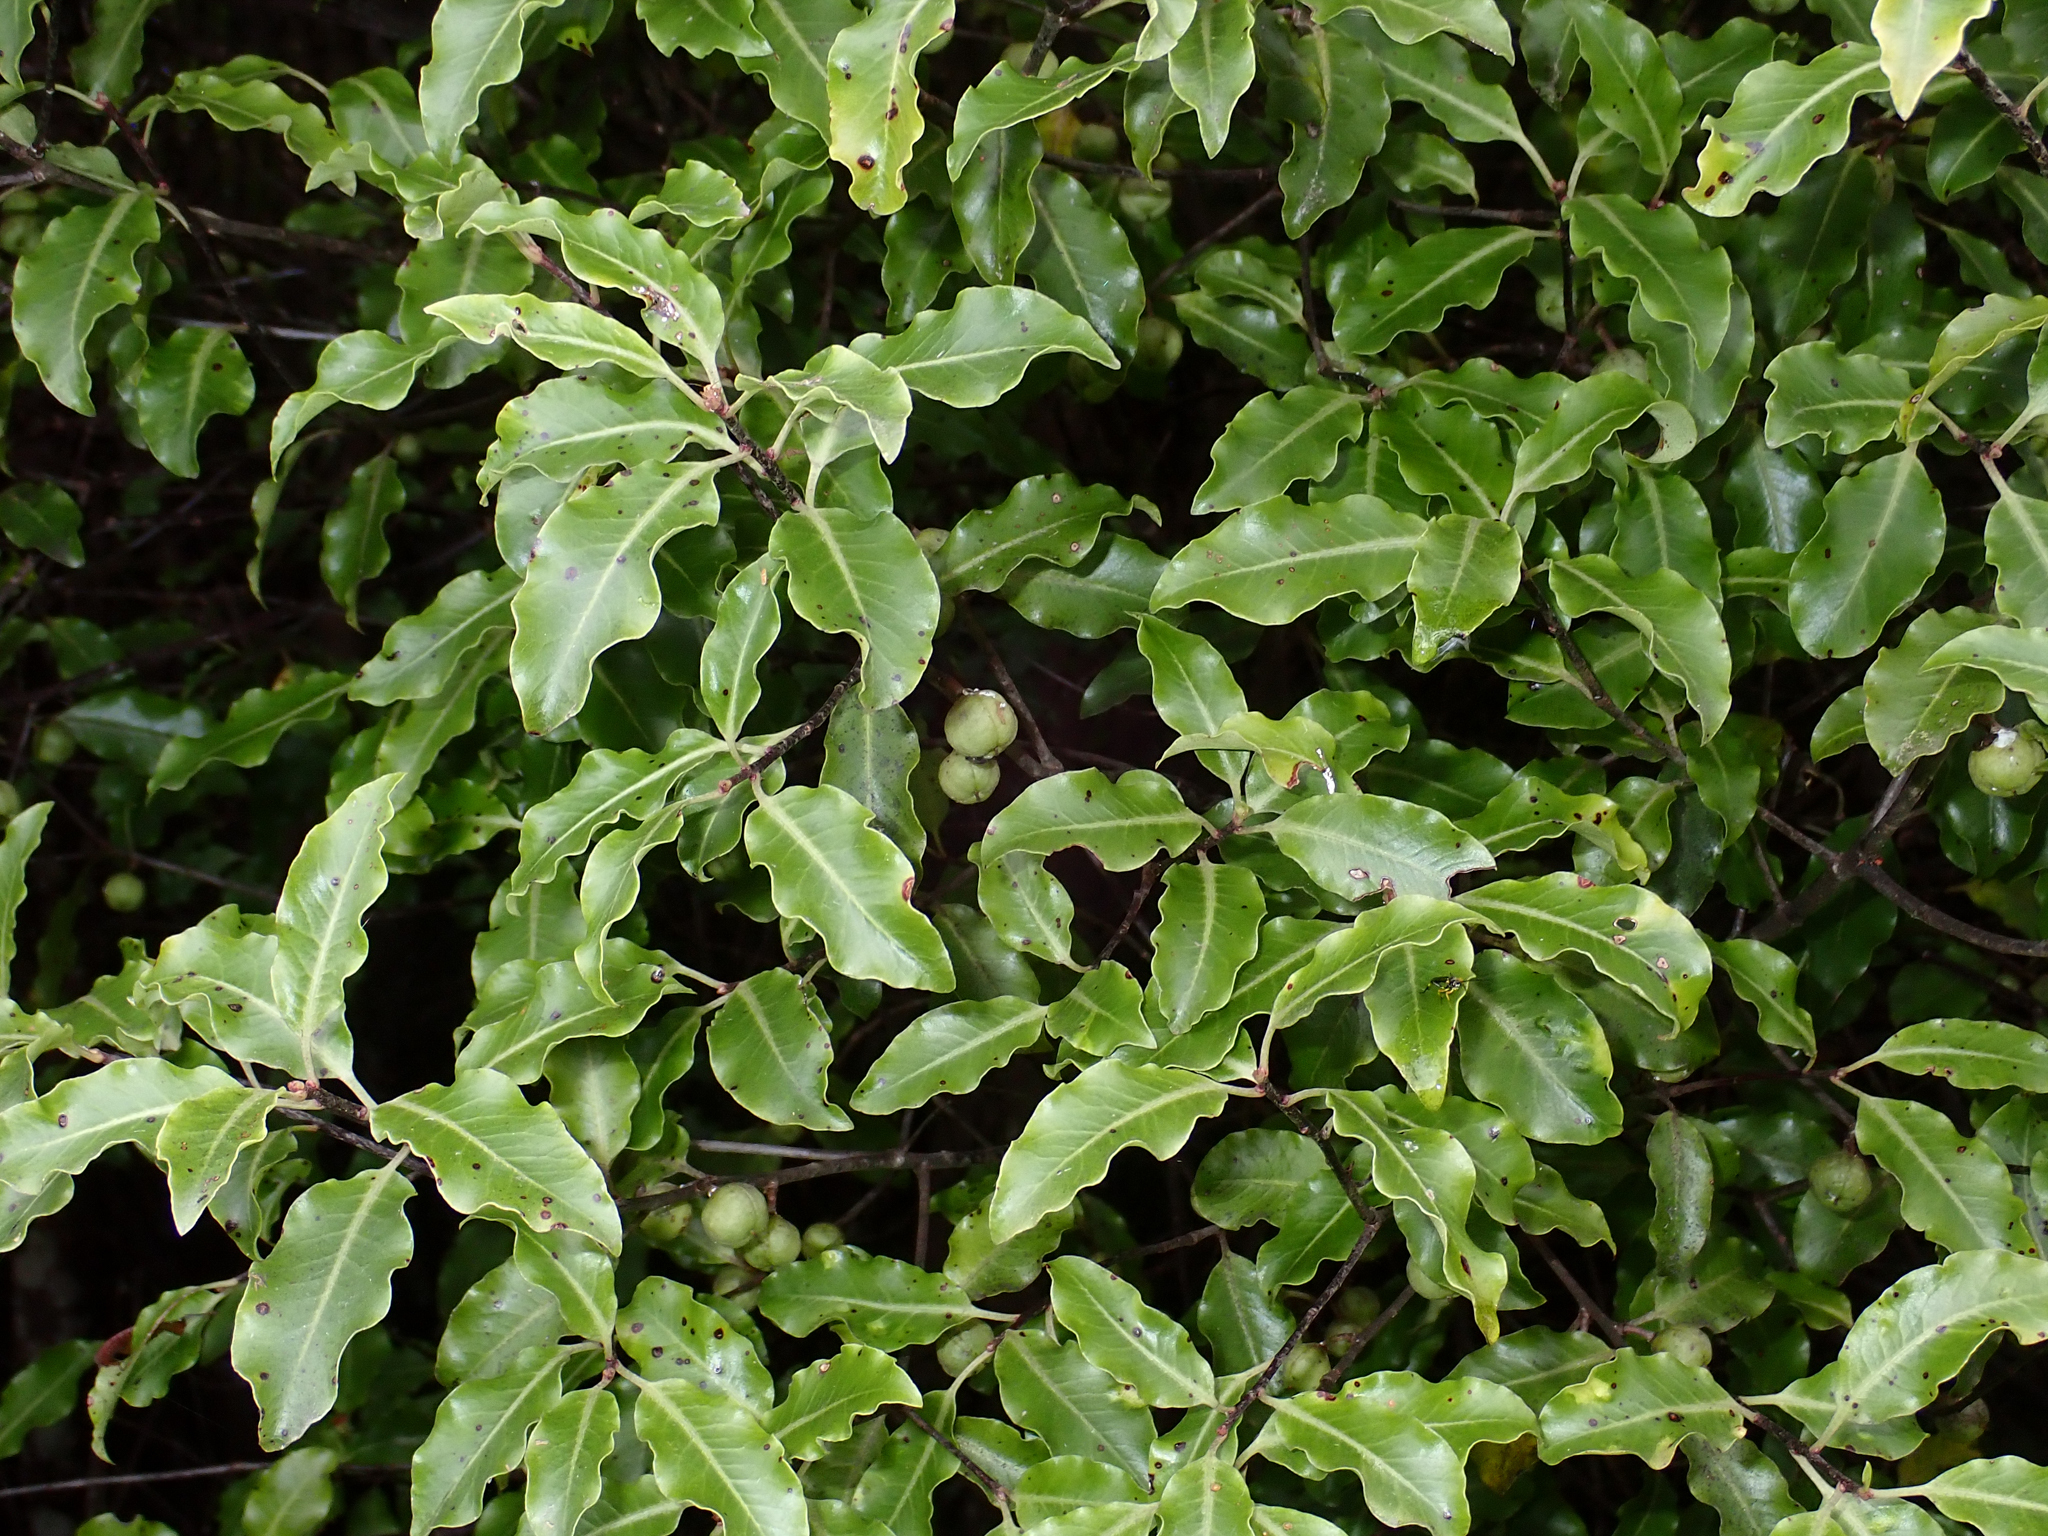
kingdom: Plantae
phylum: Tracheophyta
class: Magnoliopsida
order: Apiales
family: Pittosporaceae
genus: Pittosporum
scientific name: Pittosporum tenuifolium
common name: Kohuhu
